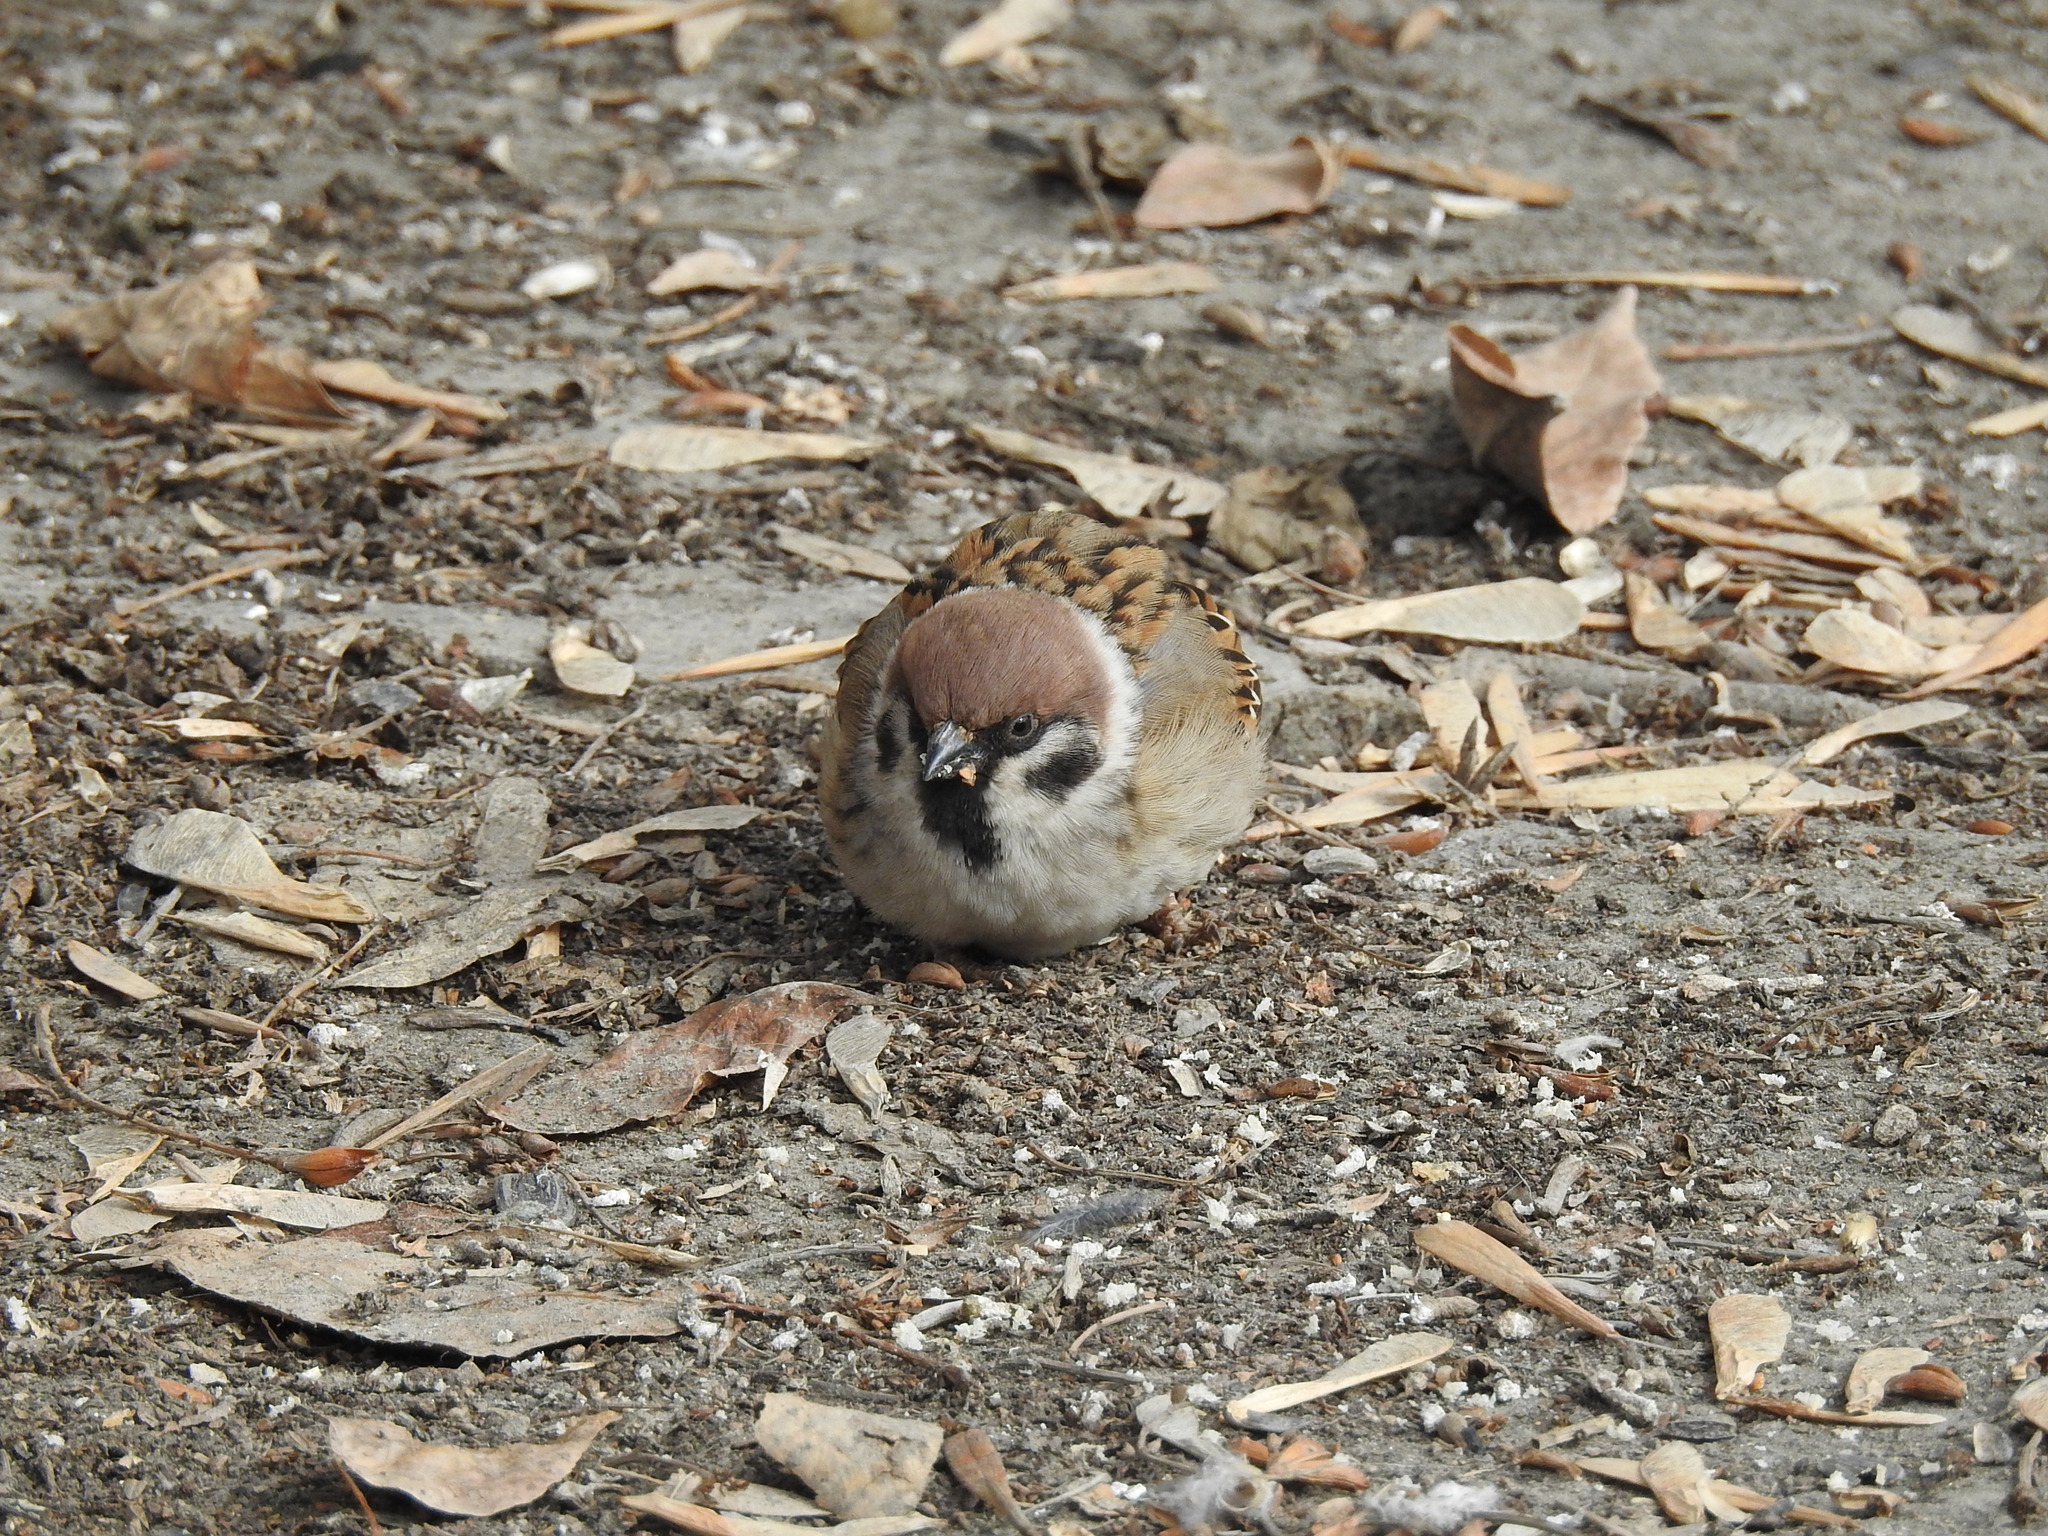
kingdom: Animalia
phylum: Chordata
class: Aves
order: Passeriformes
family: Passeridae
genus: Passer
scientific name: Passer montanus
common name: Eurasian tree sparrow
